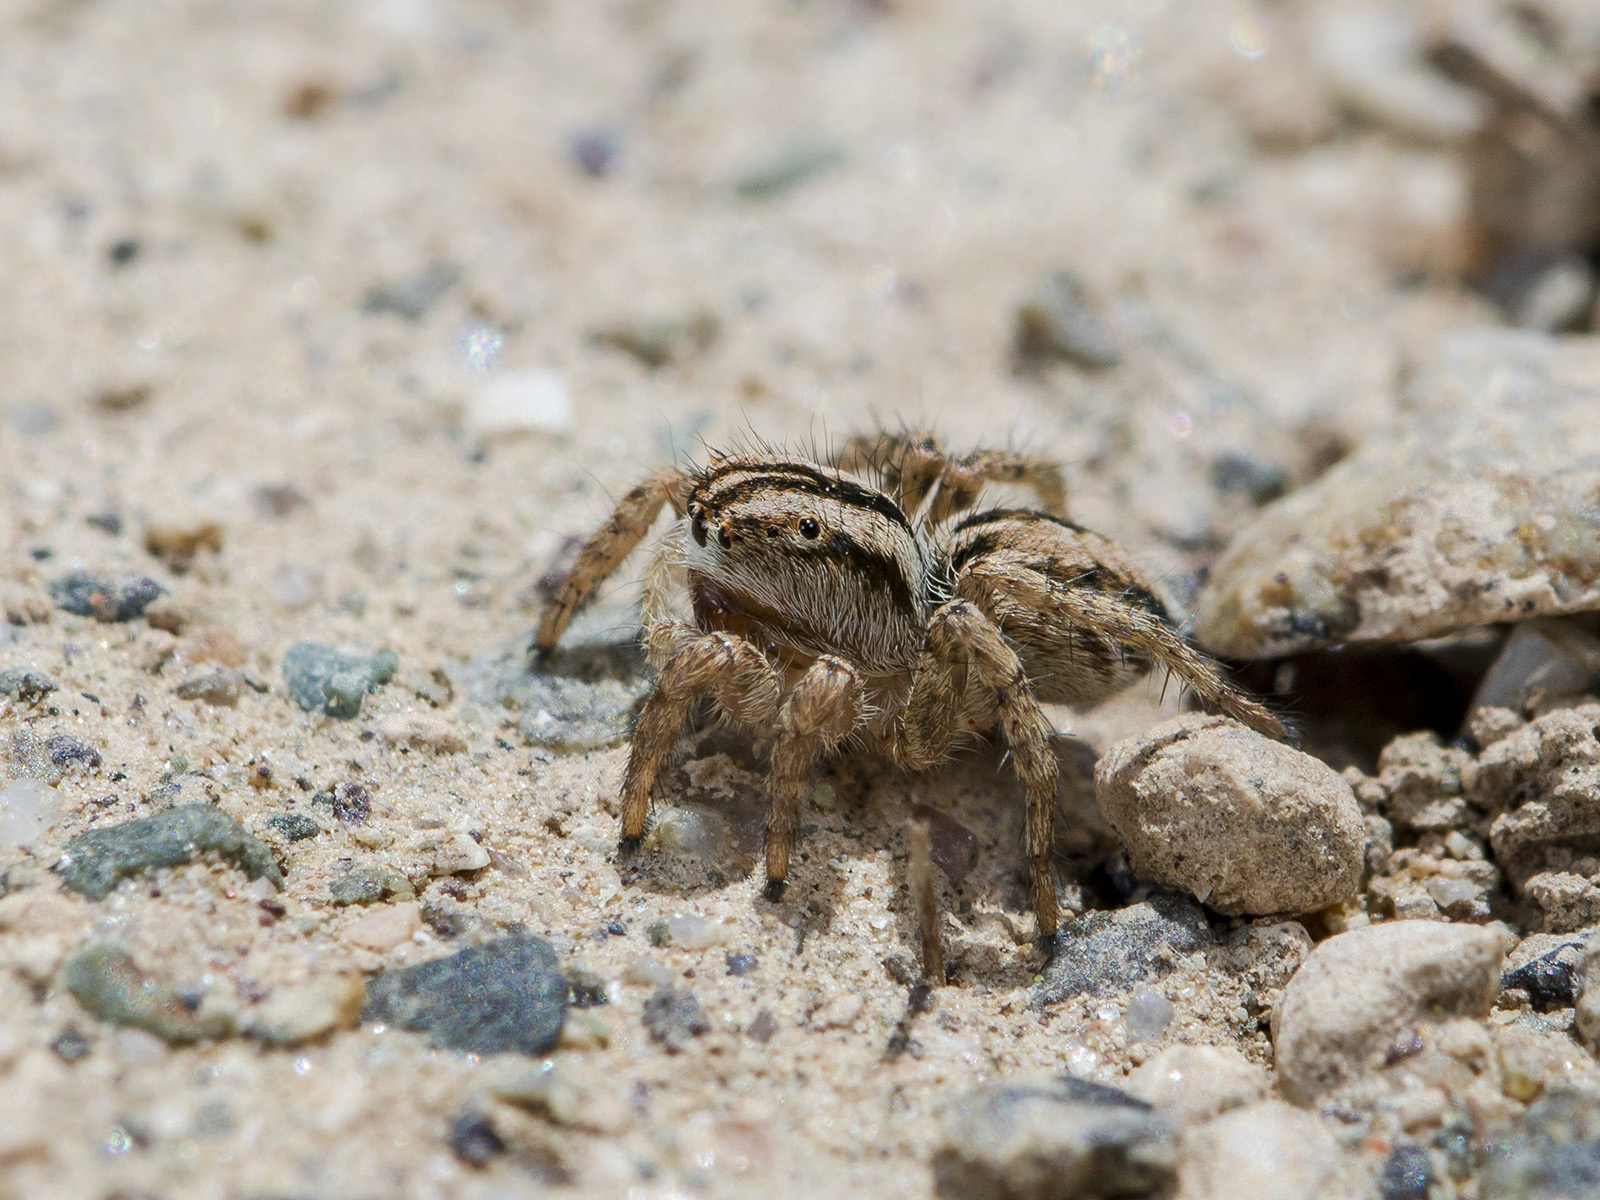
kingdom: Animalia
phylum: Arthropoda
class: Arachnida
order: Araneae
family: Salticidae
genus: Aelurillus
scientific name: Aelurillus m-nigrum
